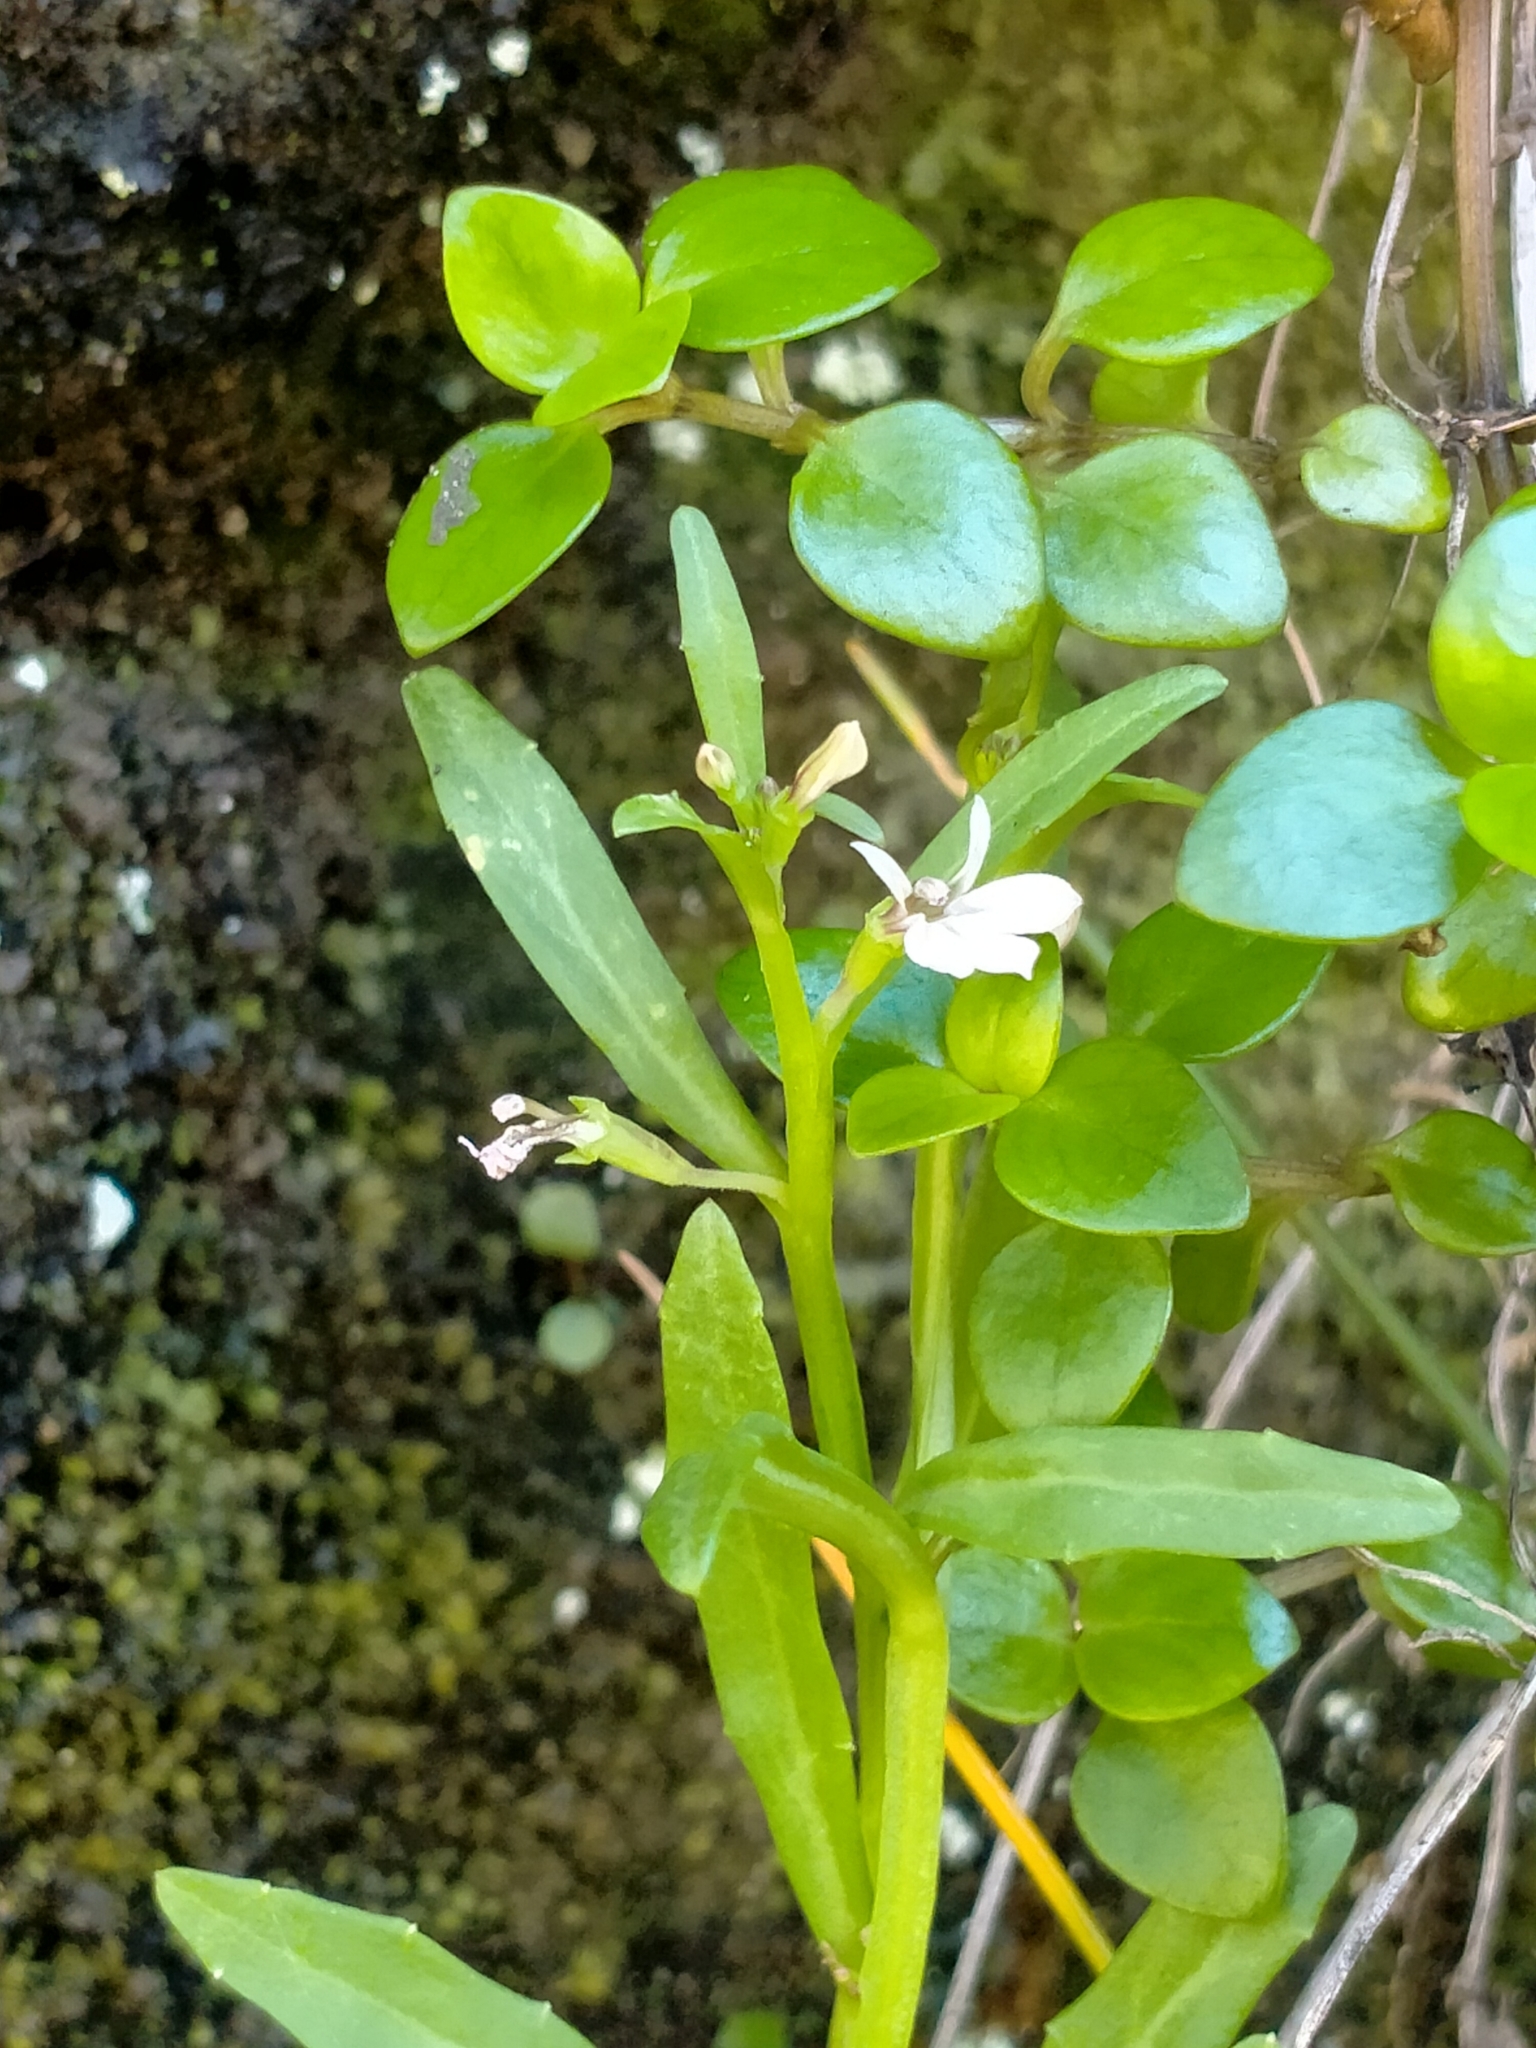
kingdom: Plantae
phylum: Tracheophyta
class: Magnoliopsida
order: Asterales
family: Campanulaceae
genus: Lobelia
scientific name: Lobelia anceps
